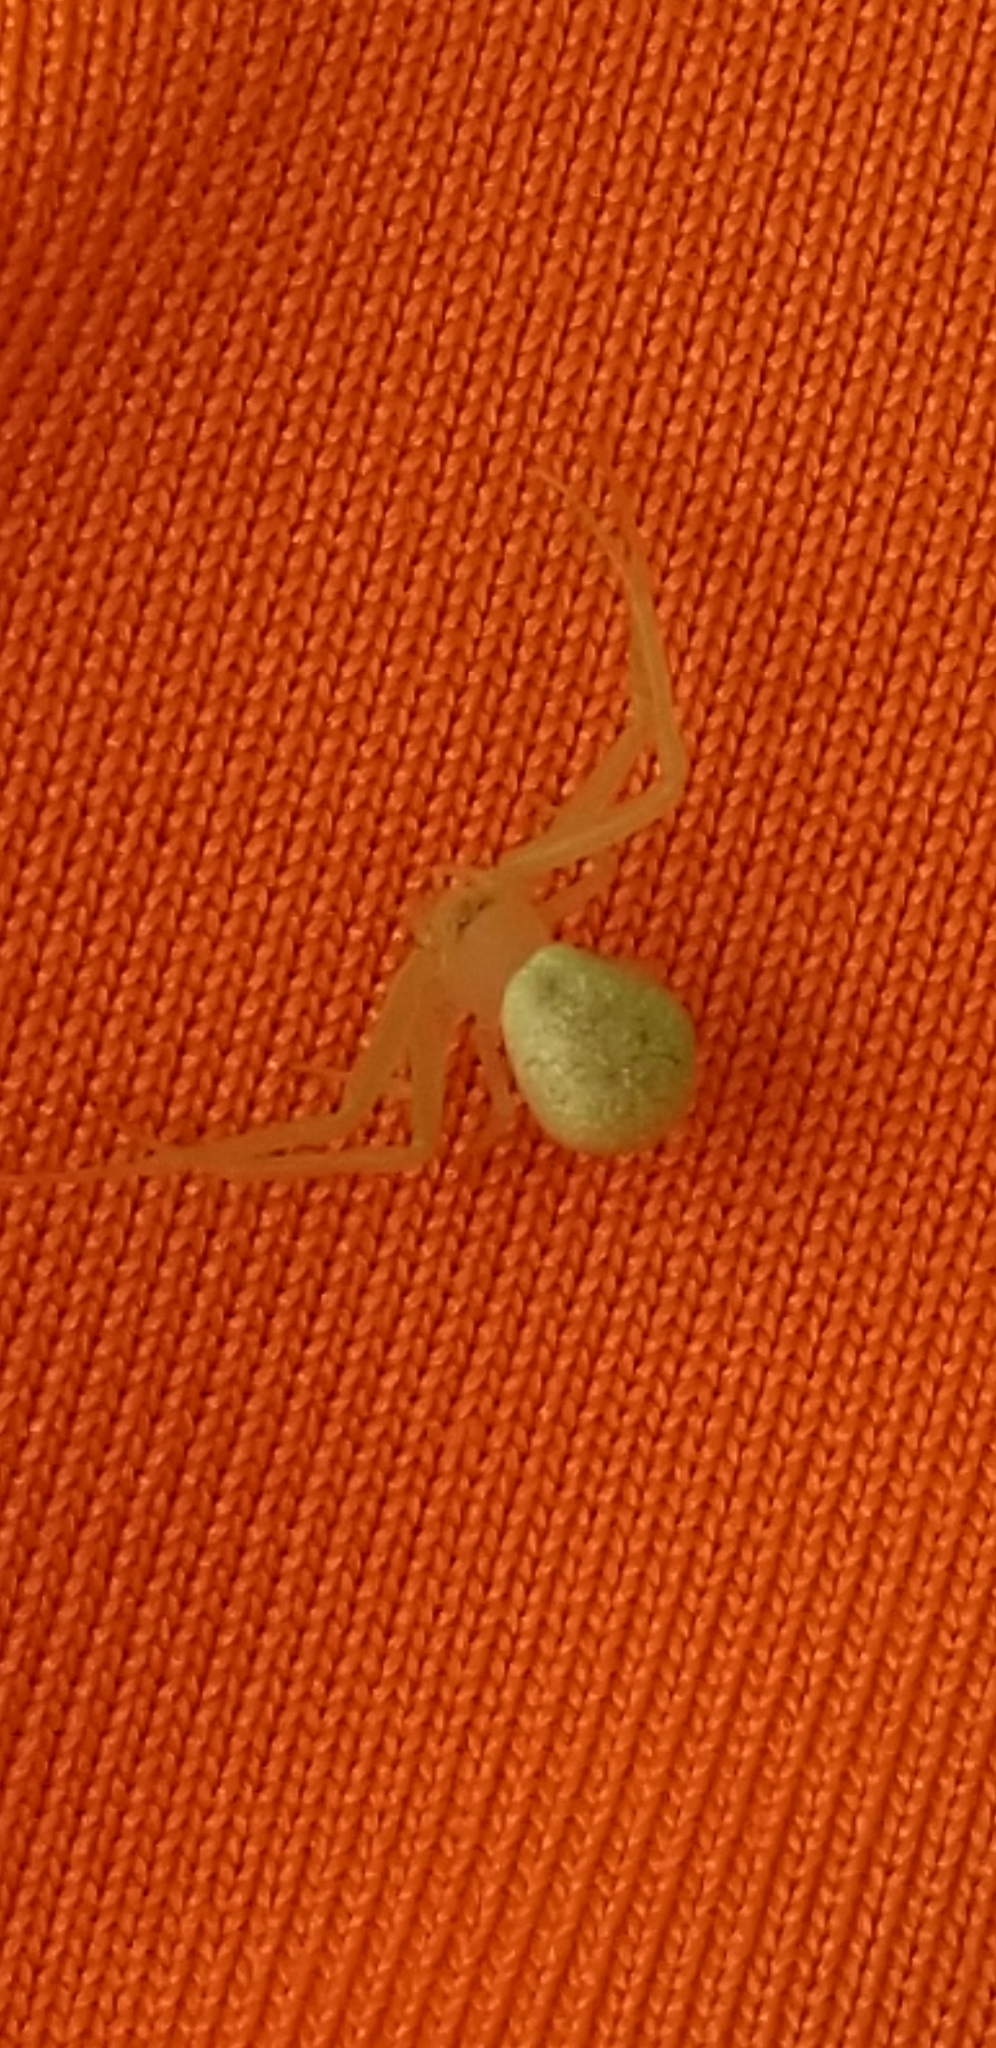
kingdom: Animalia
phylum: Arthropoda
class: Arachnida
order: Araneae
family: Thomisidae
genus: Misumessus
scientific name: Misumessus oblongus
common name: American green crab spider
